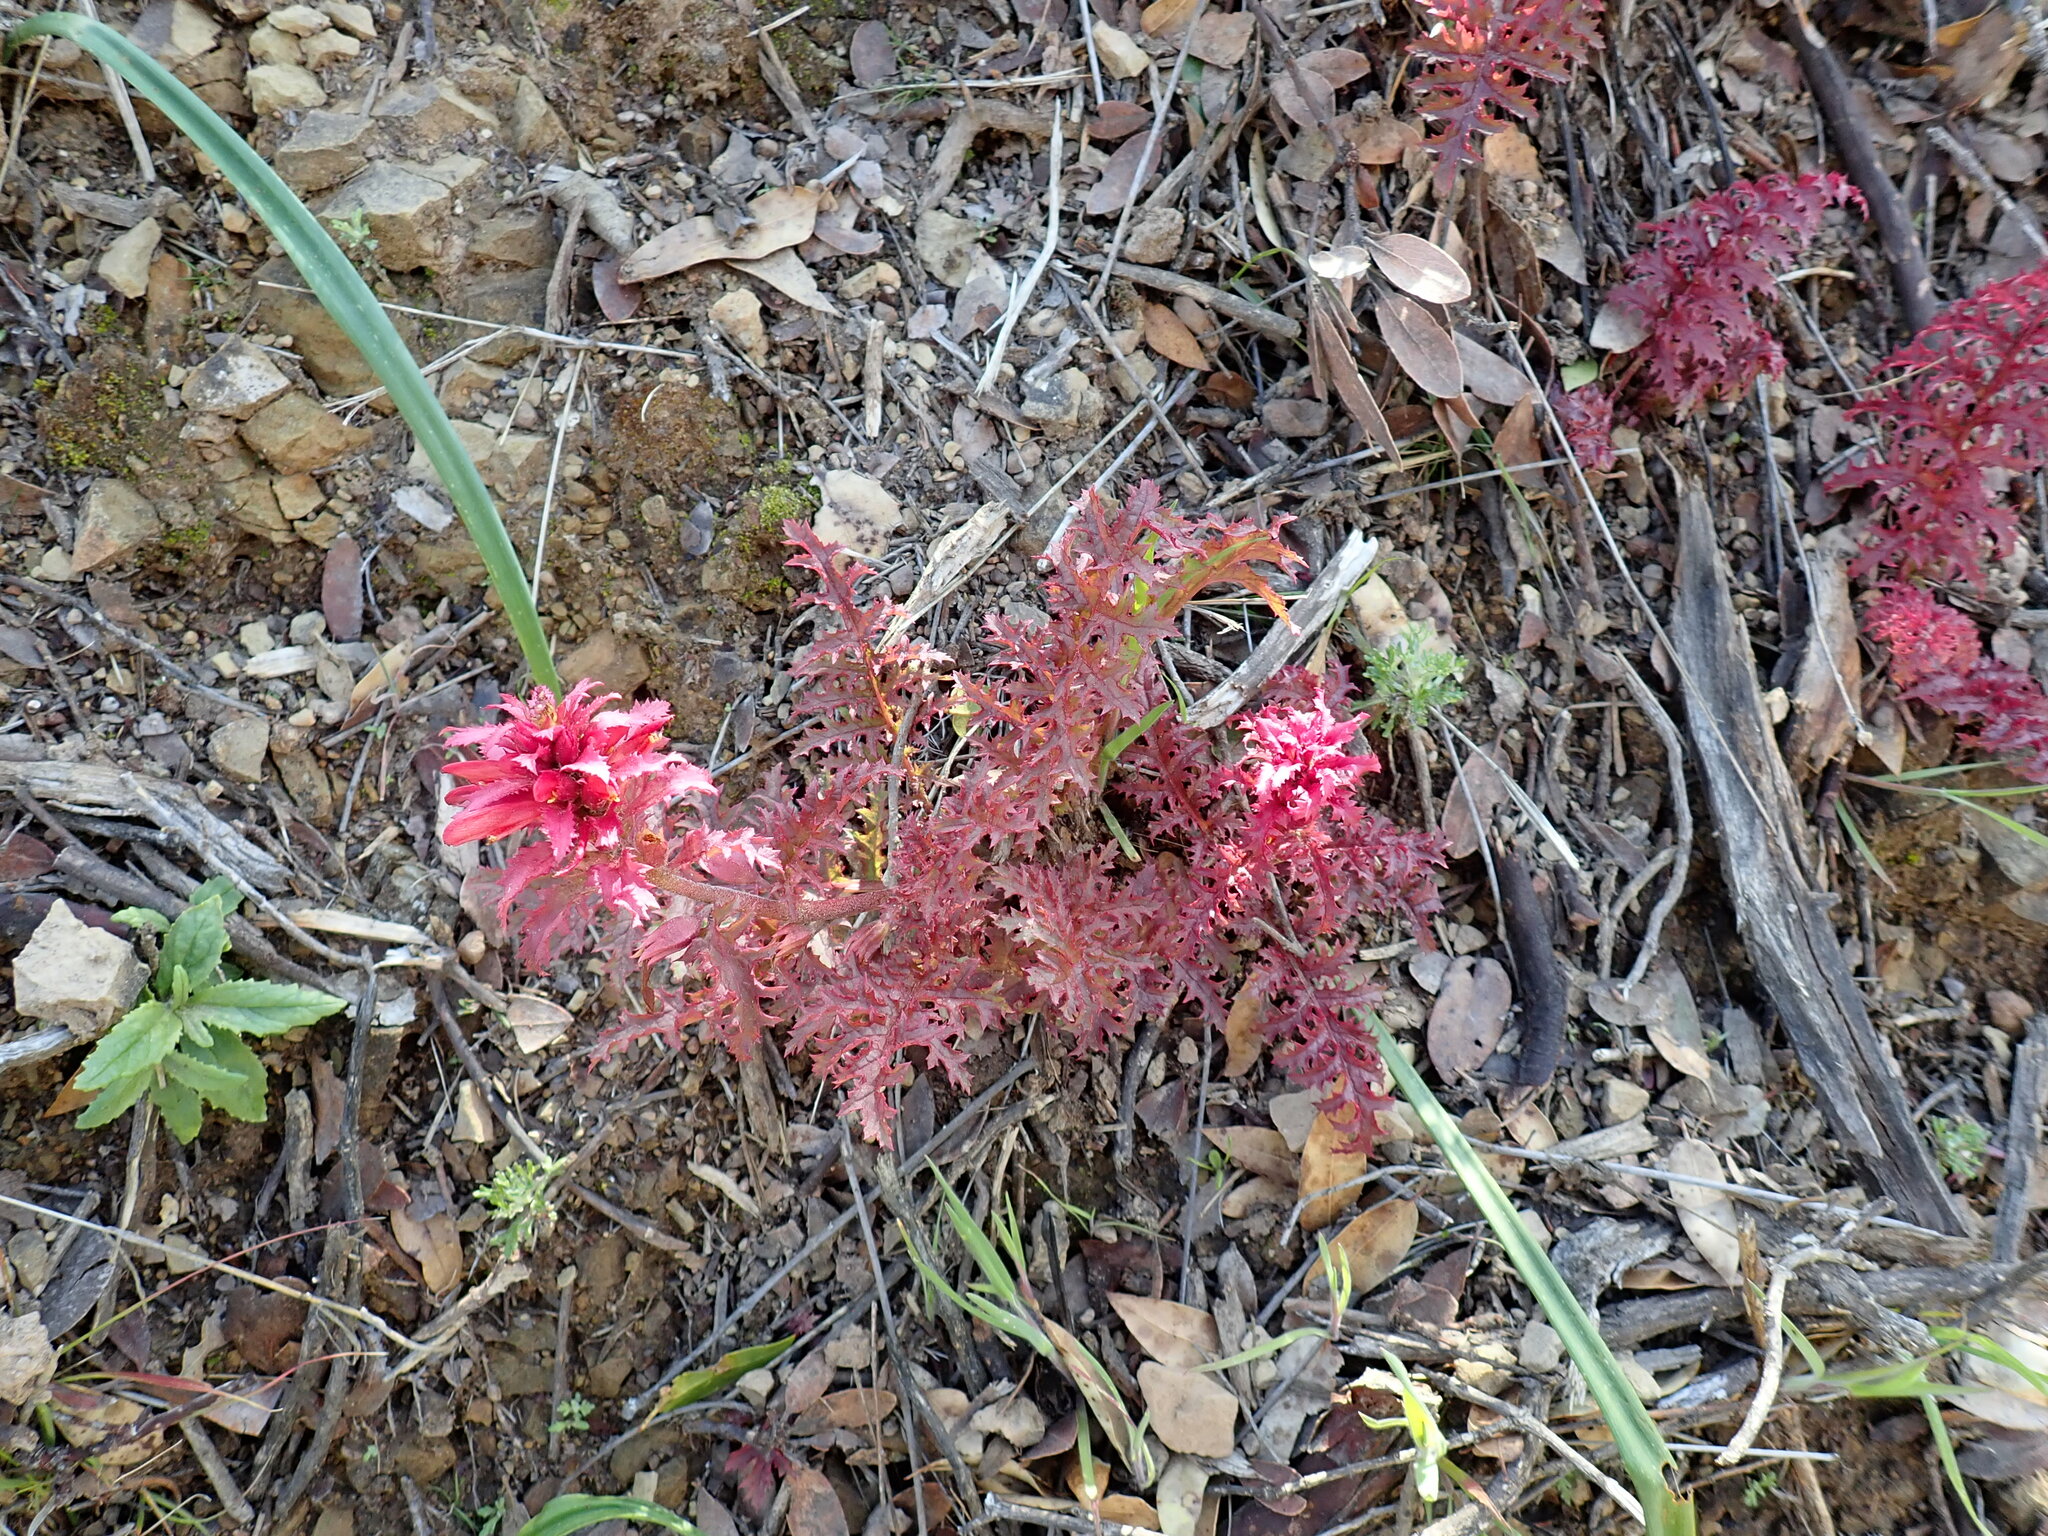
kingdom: Plantae
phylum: Tracheophyta
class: Magnoliopsida
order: Lamiales
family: Orobanchaceae
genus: Pedicularis
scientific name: Pedicularis densiflora
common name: Indian warrior
